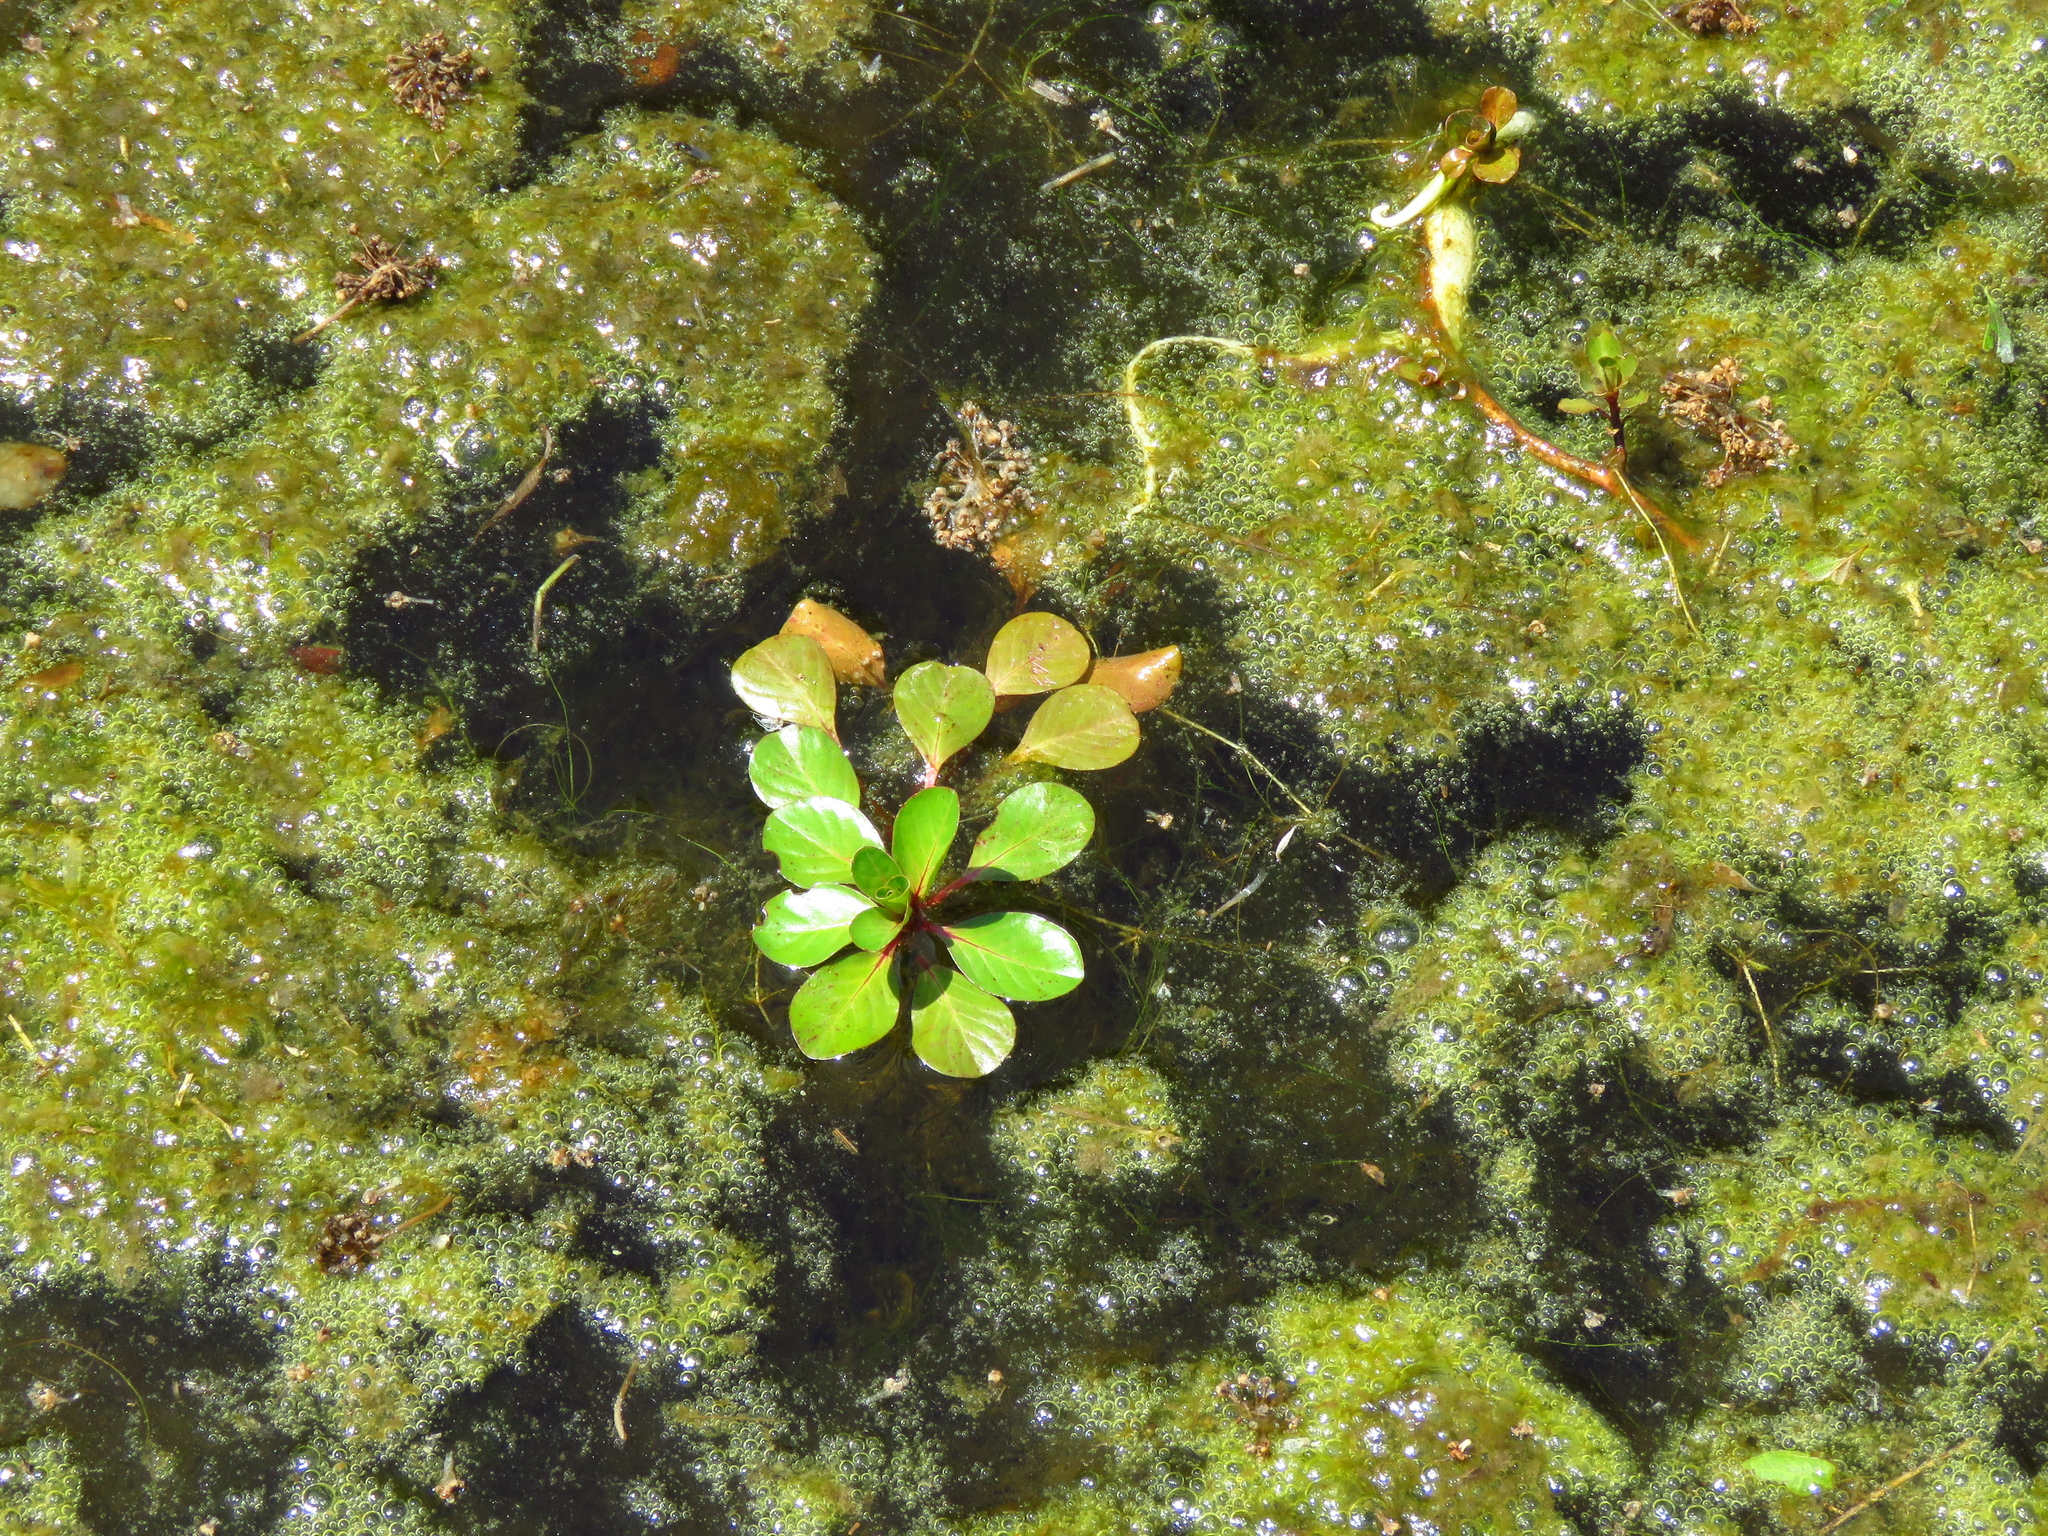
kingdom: Plantae
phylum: Tracheophyta
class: Magnoliopsida
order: Myrtales
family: Onagraceae
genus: Ludwigia
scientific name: Ludwigia peploides
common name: Floating primrose-willow
